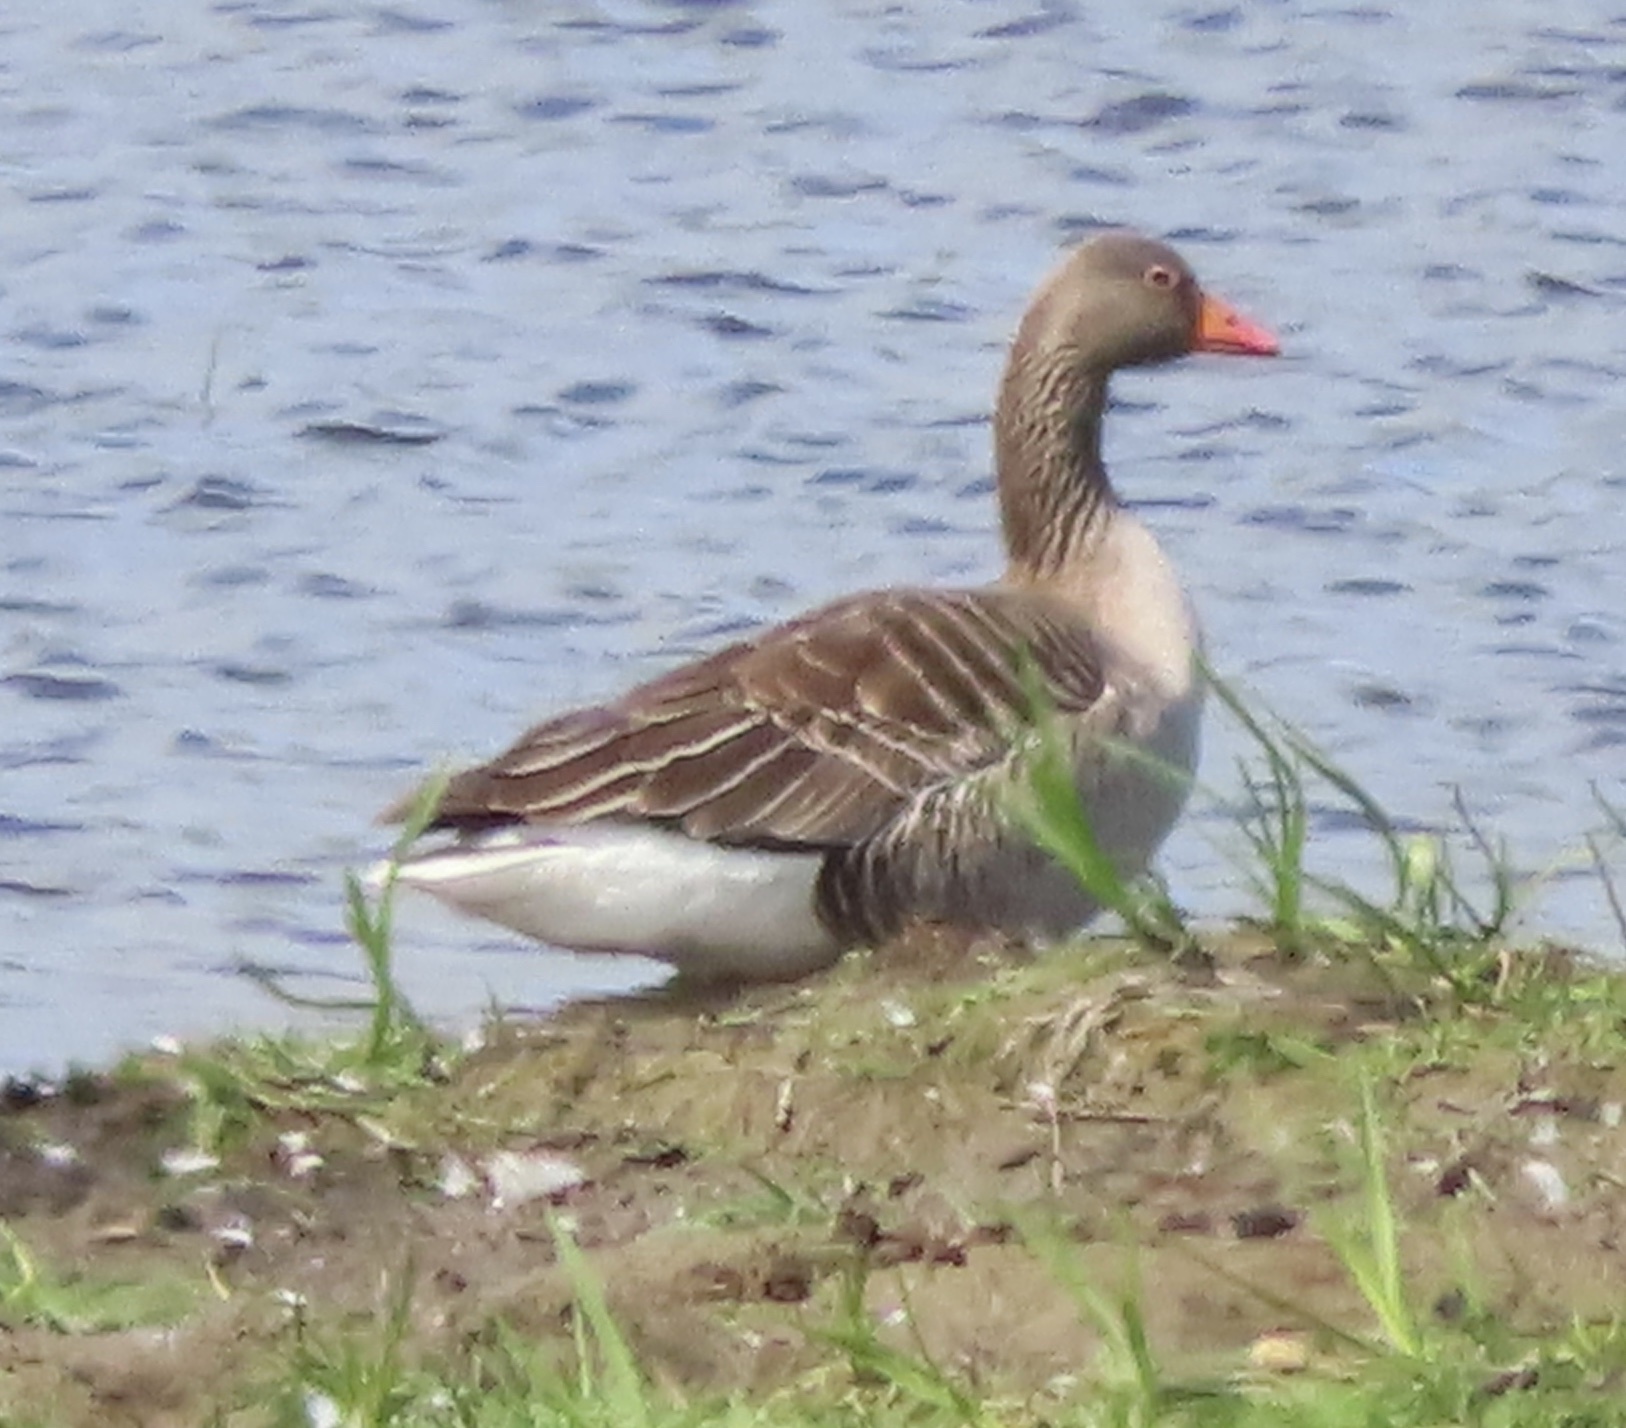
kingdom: Animalia
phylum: Chordata
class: Aves
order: Anseriformes
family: Anatidae
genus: Anser
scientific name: Anser anser
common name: Greylag goose
